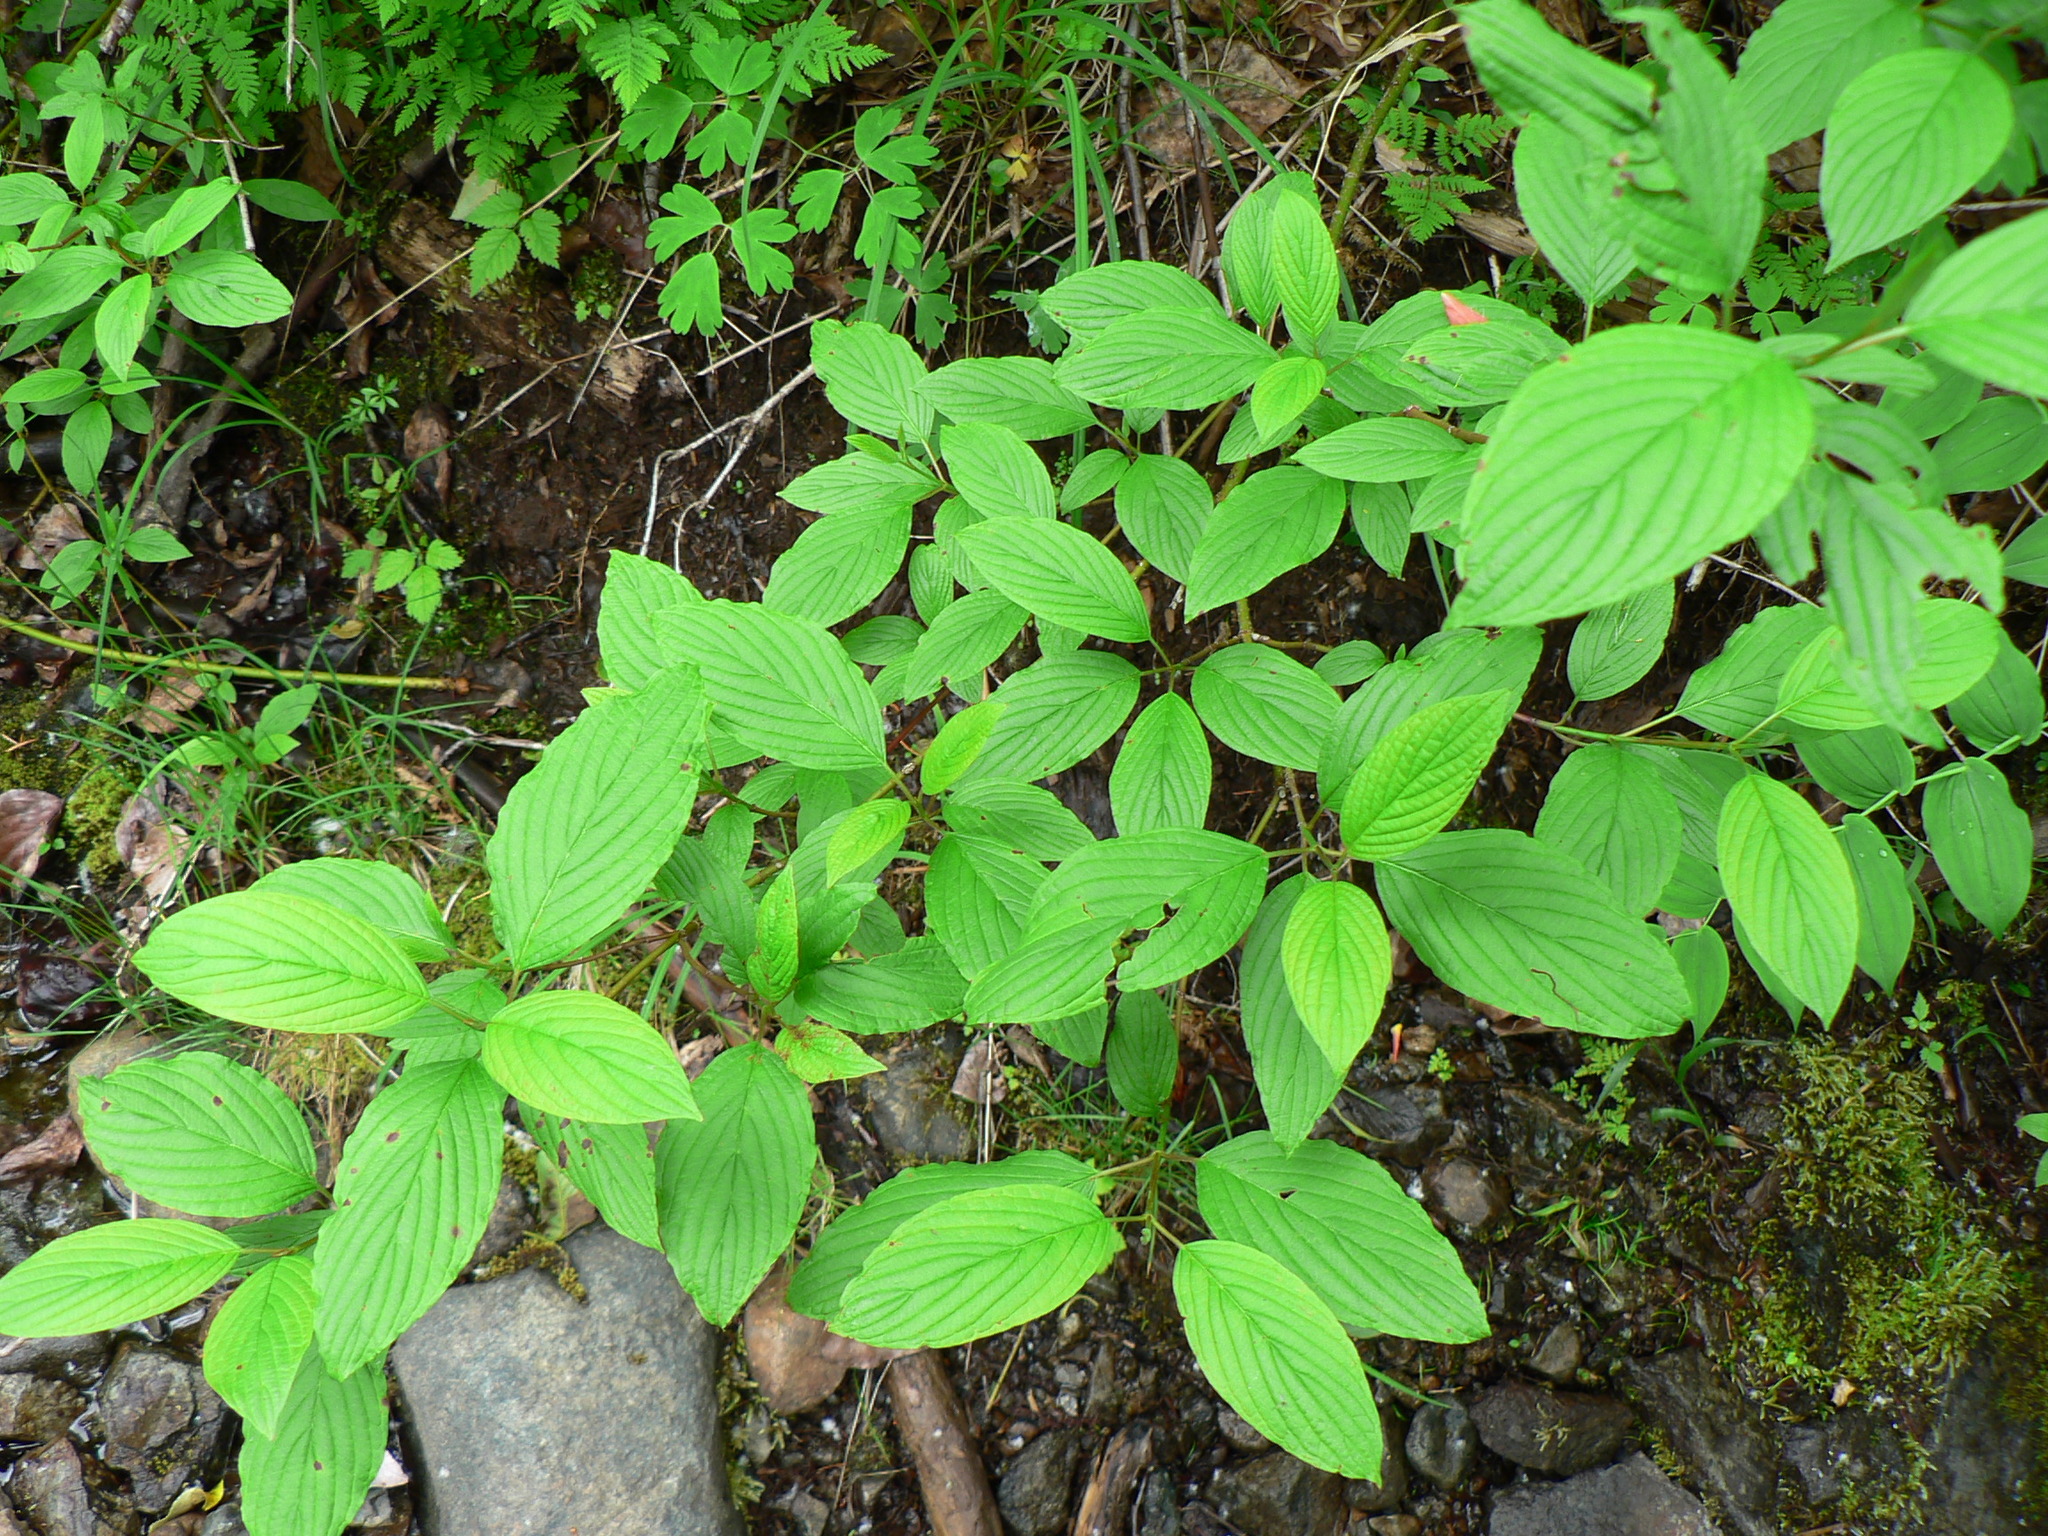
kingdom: Plantae
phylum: Tracheophyta
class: Magnoliopsida
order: Cornales
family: Cornaceae
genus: Cornus
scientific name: Cornus sericea
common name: Red-osier dogwood
